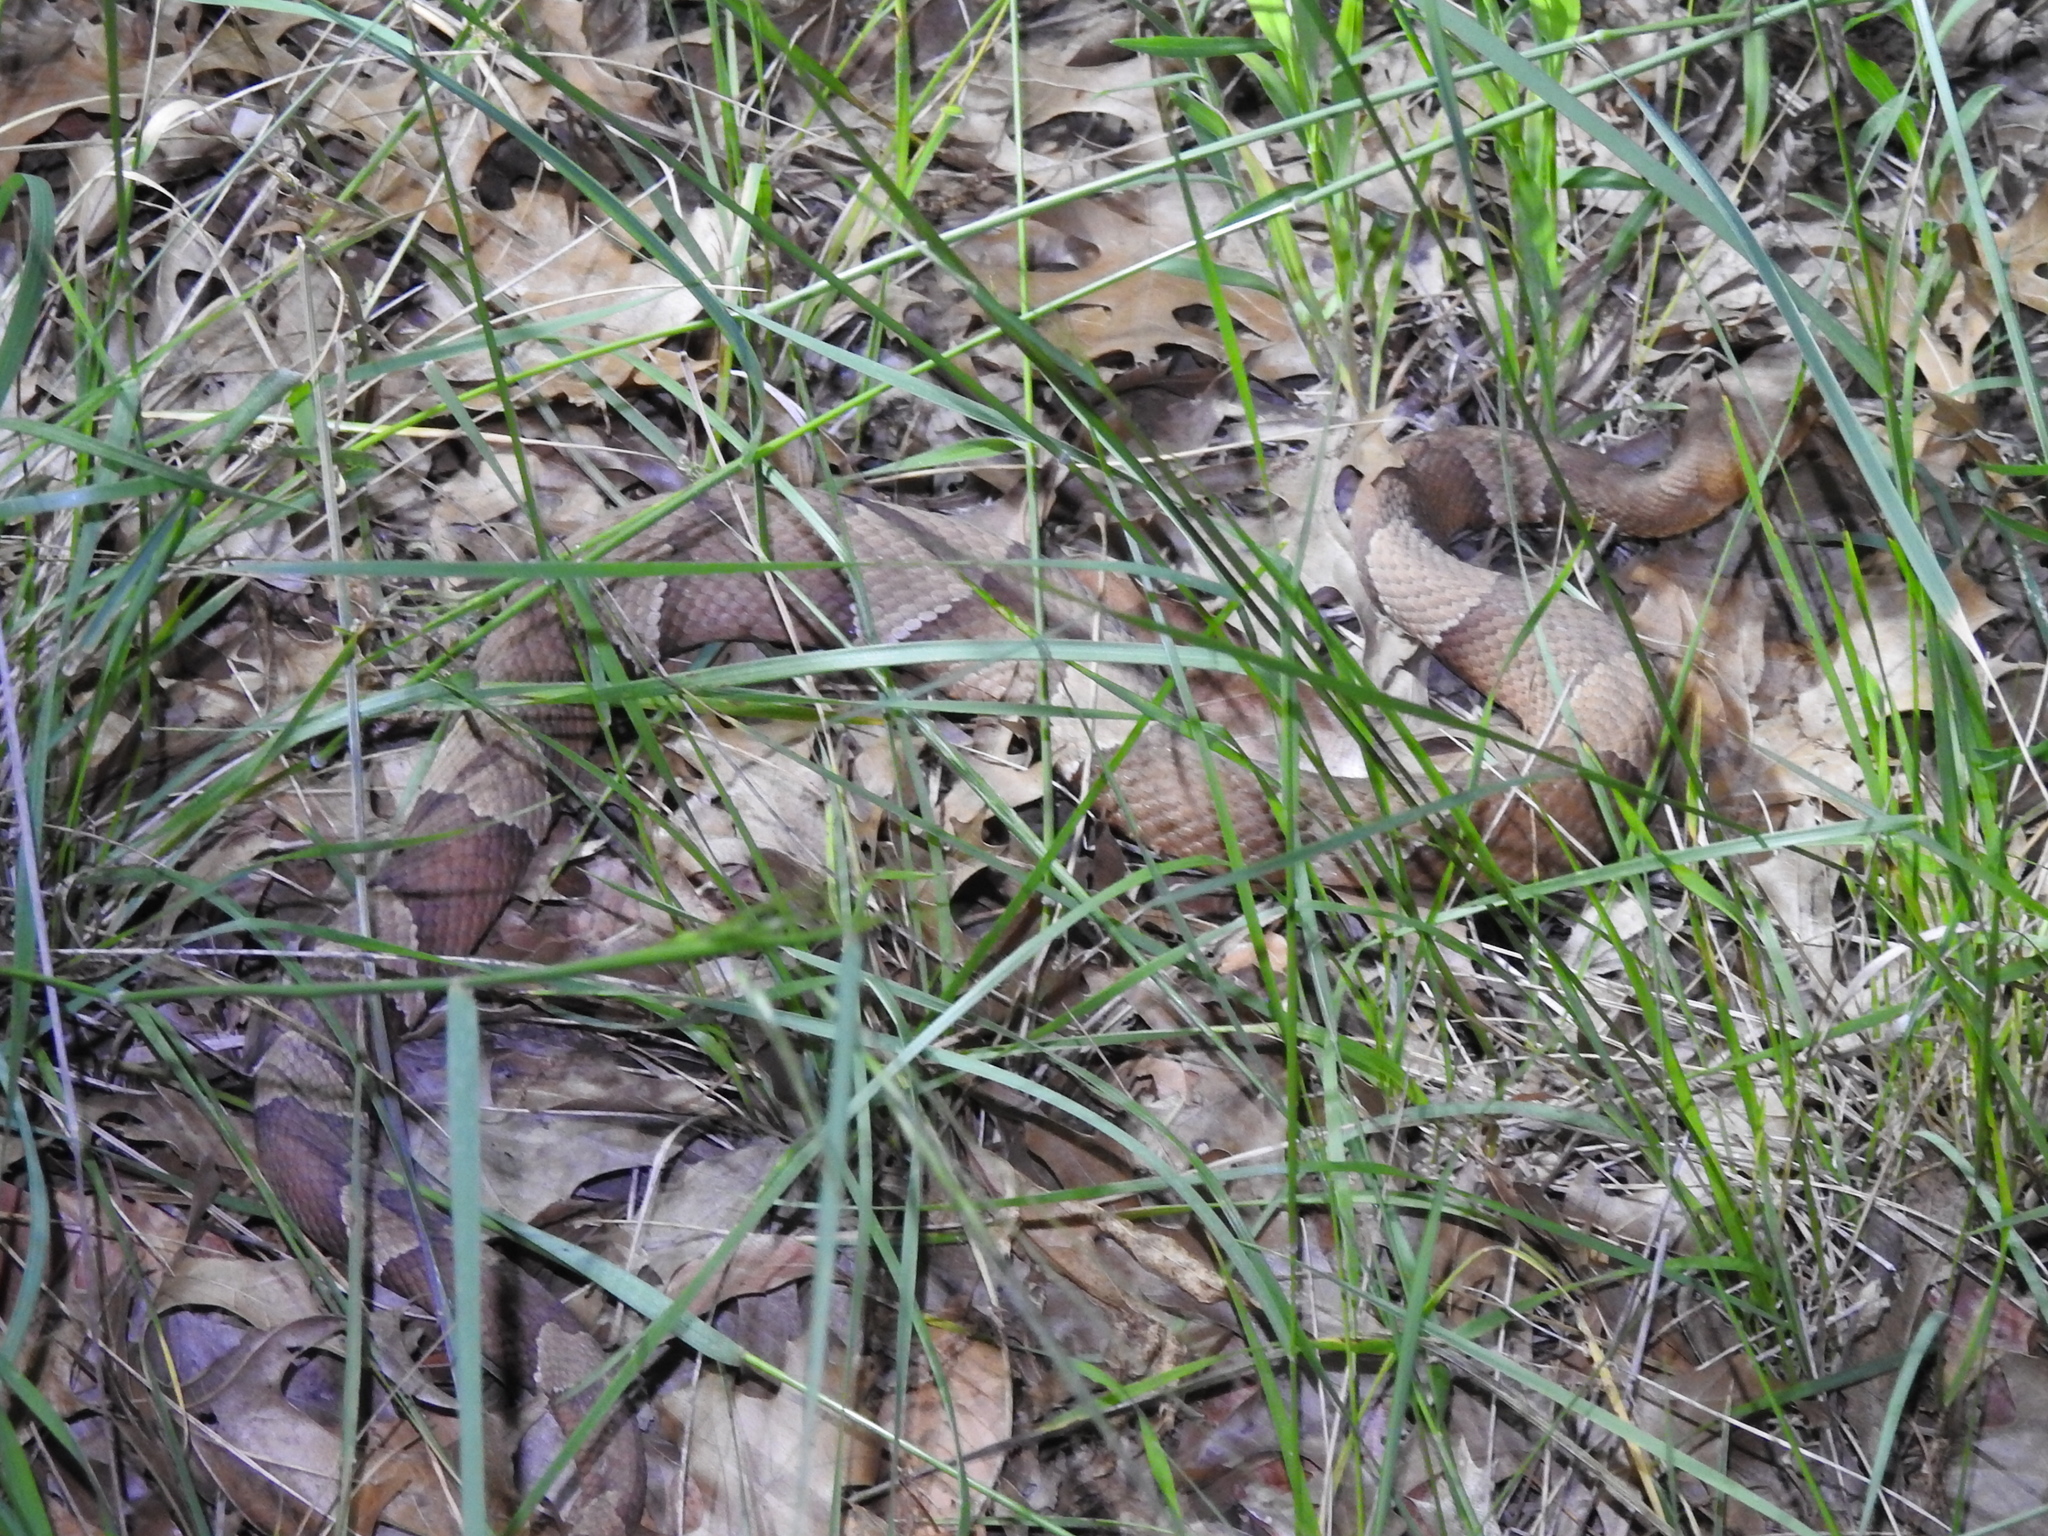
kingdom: Animalia
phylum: Chordata
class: Squamata
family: Viperidae
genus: Agkistrodon
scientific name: Agkistrodon laticinctus
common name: Broad-banded copperhead
